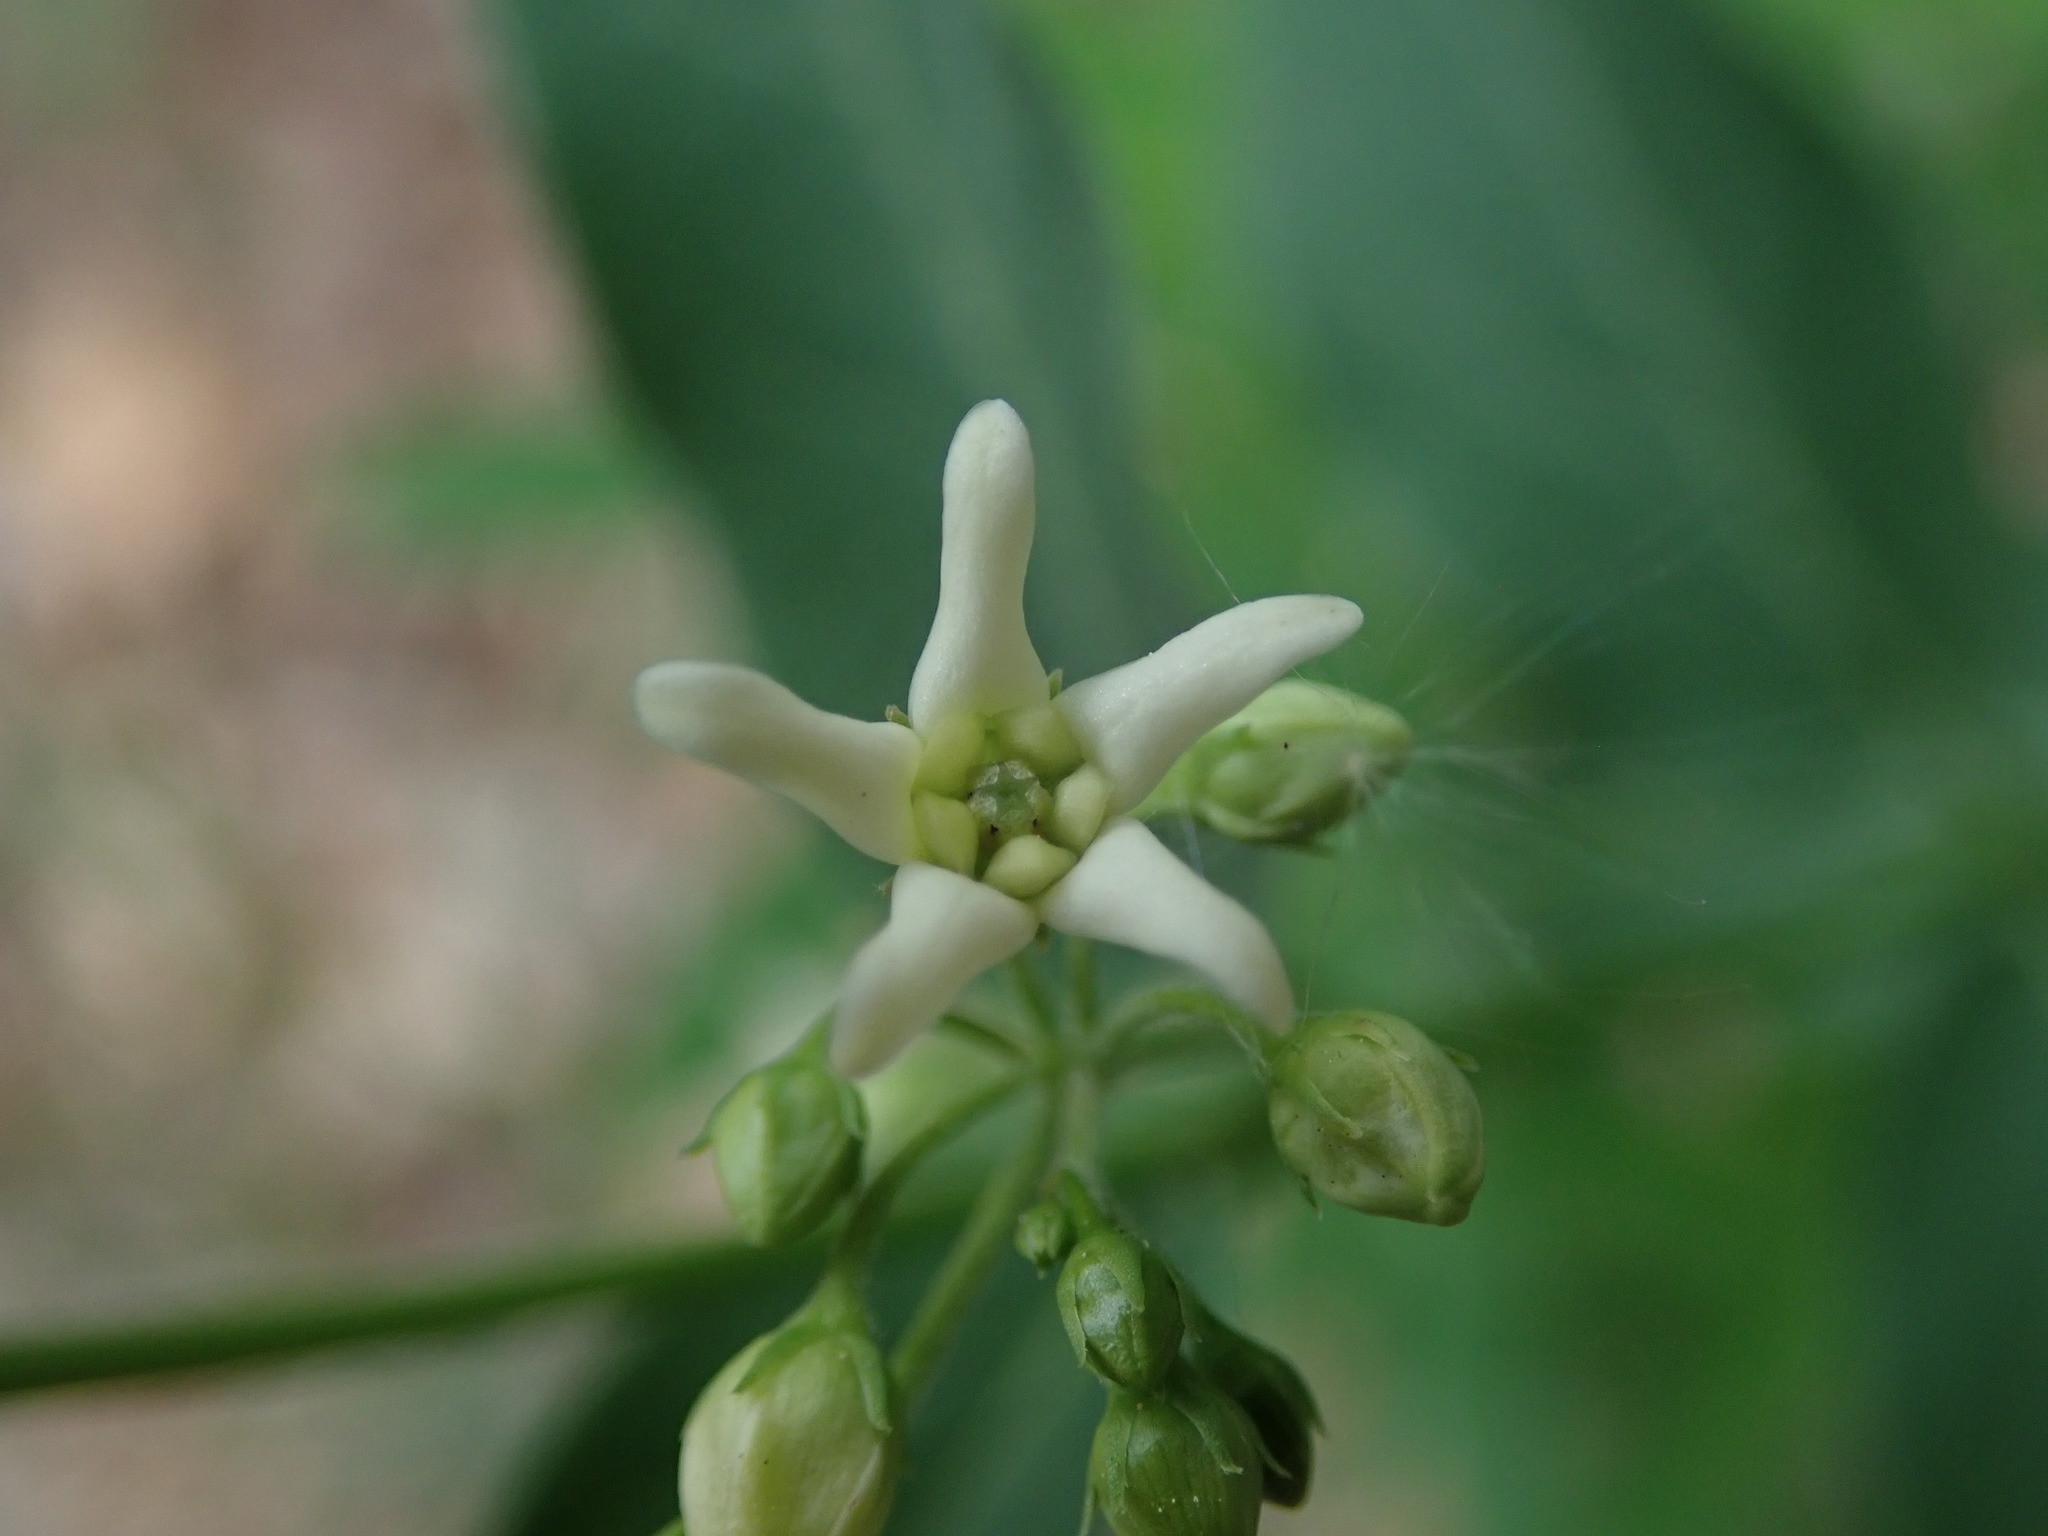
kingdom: Plantae
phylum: Tracheophyta
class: Magnoliopsida
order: Gentianales
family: Apocynaceae
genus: Vincetoxicum
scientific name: Vincetoxicum hirundinaria
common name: White swallowwort
